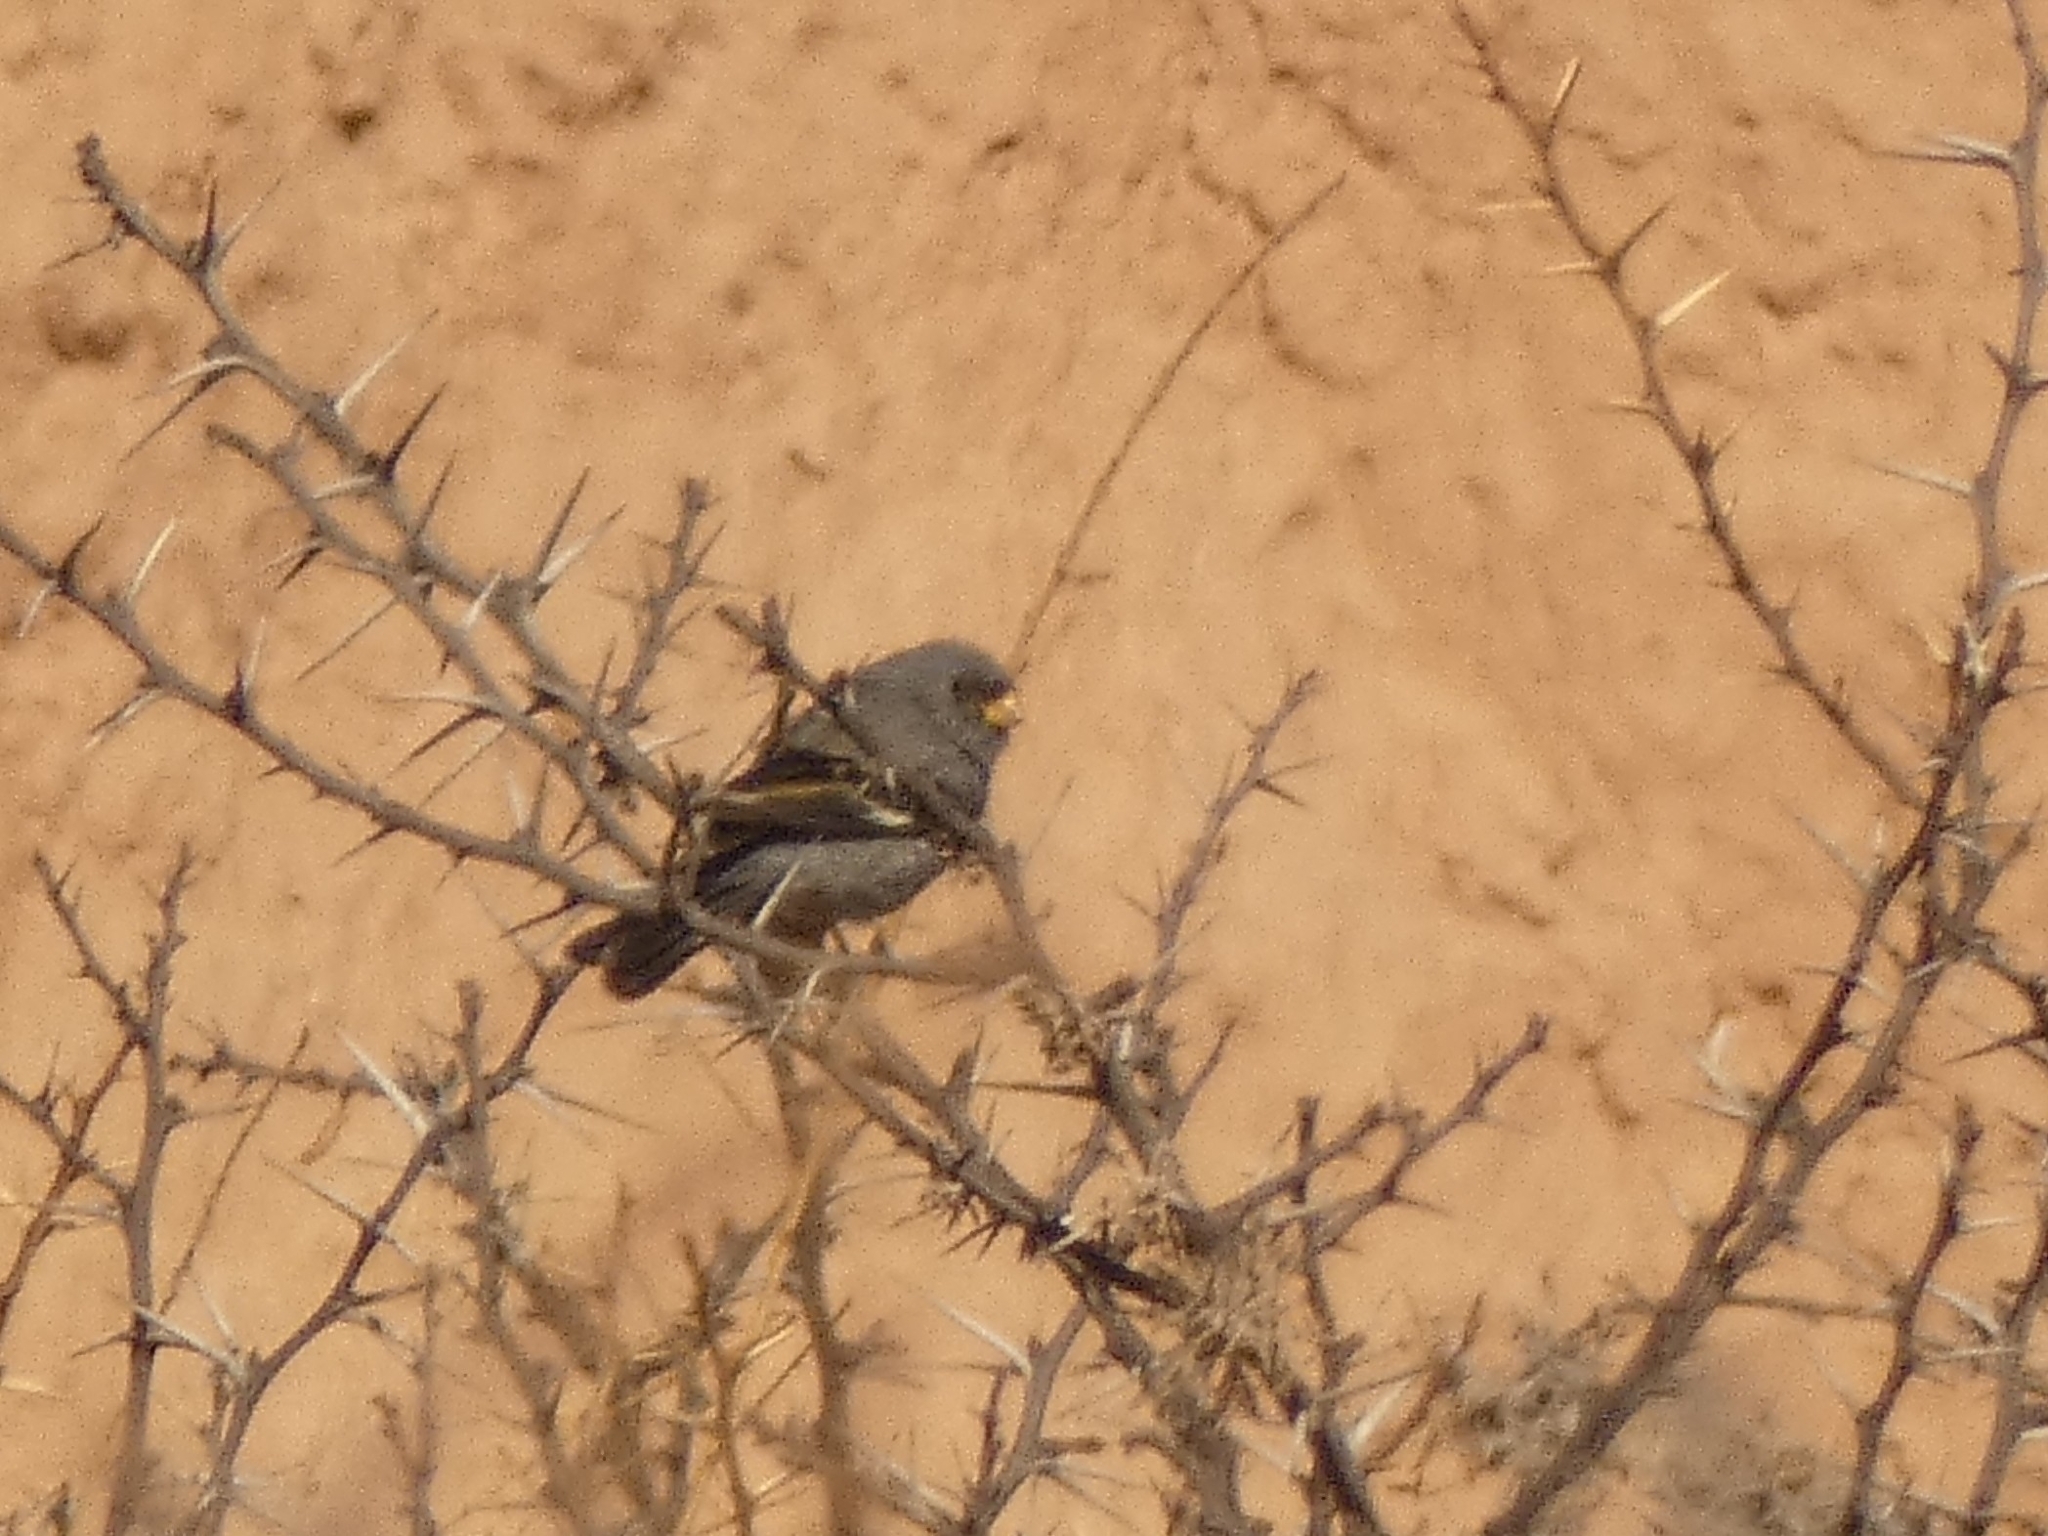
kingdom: Animalia
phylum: Chordata
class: Aves
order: Passeriformes
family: Thraupidae
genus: Catamenia
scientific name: Catamenia analis
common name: Band-tailed seedeater
